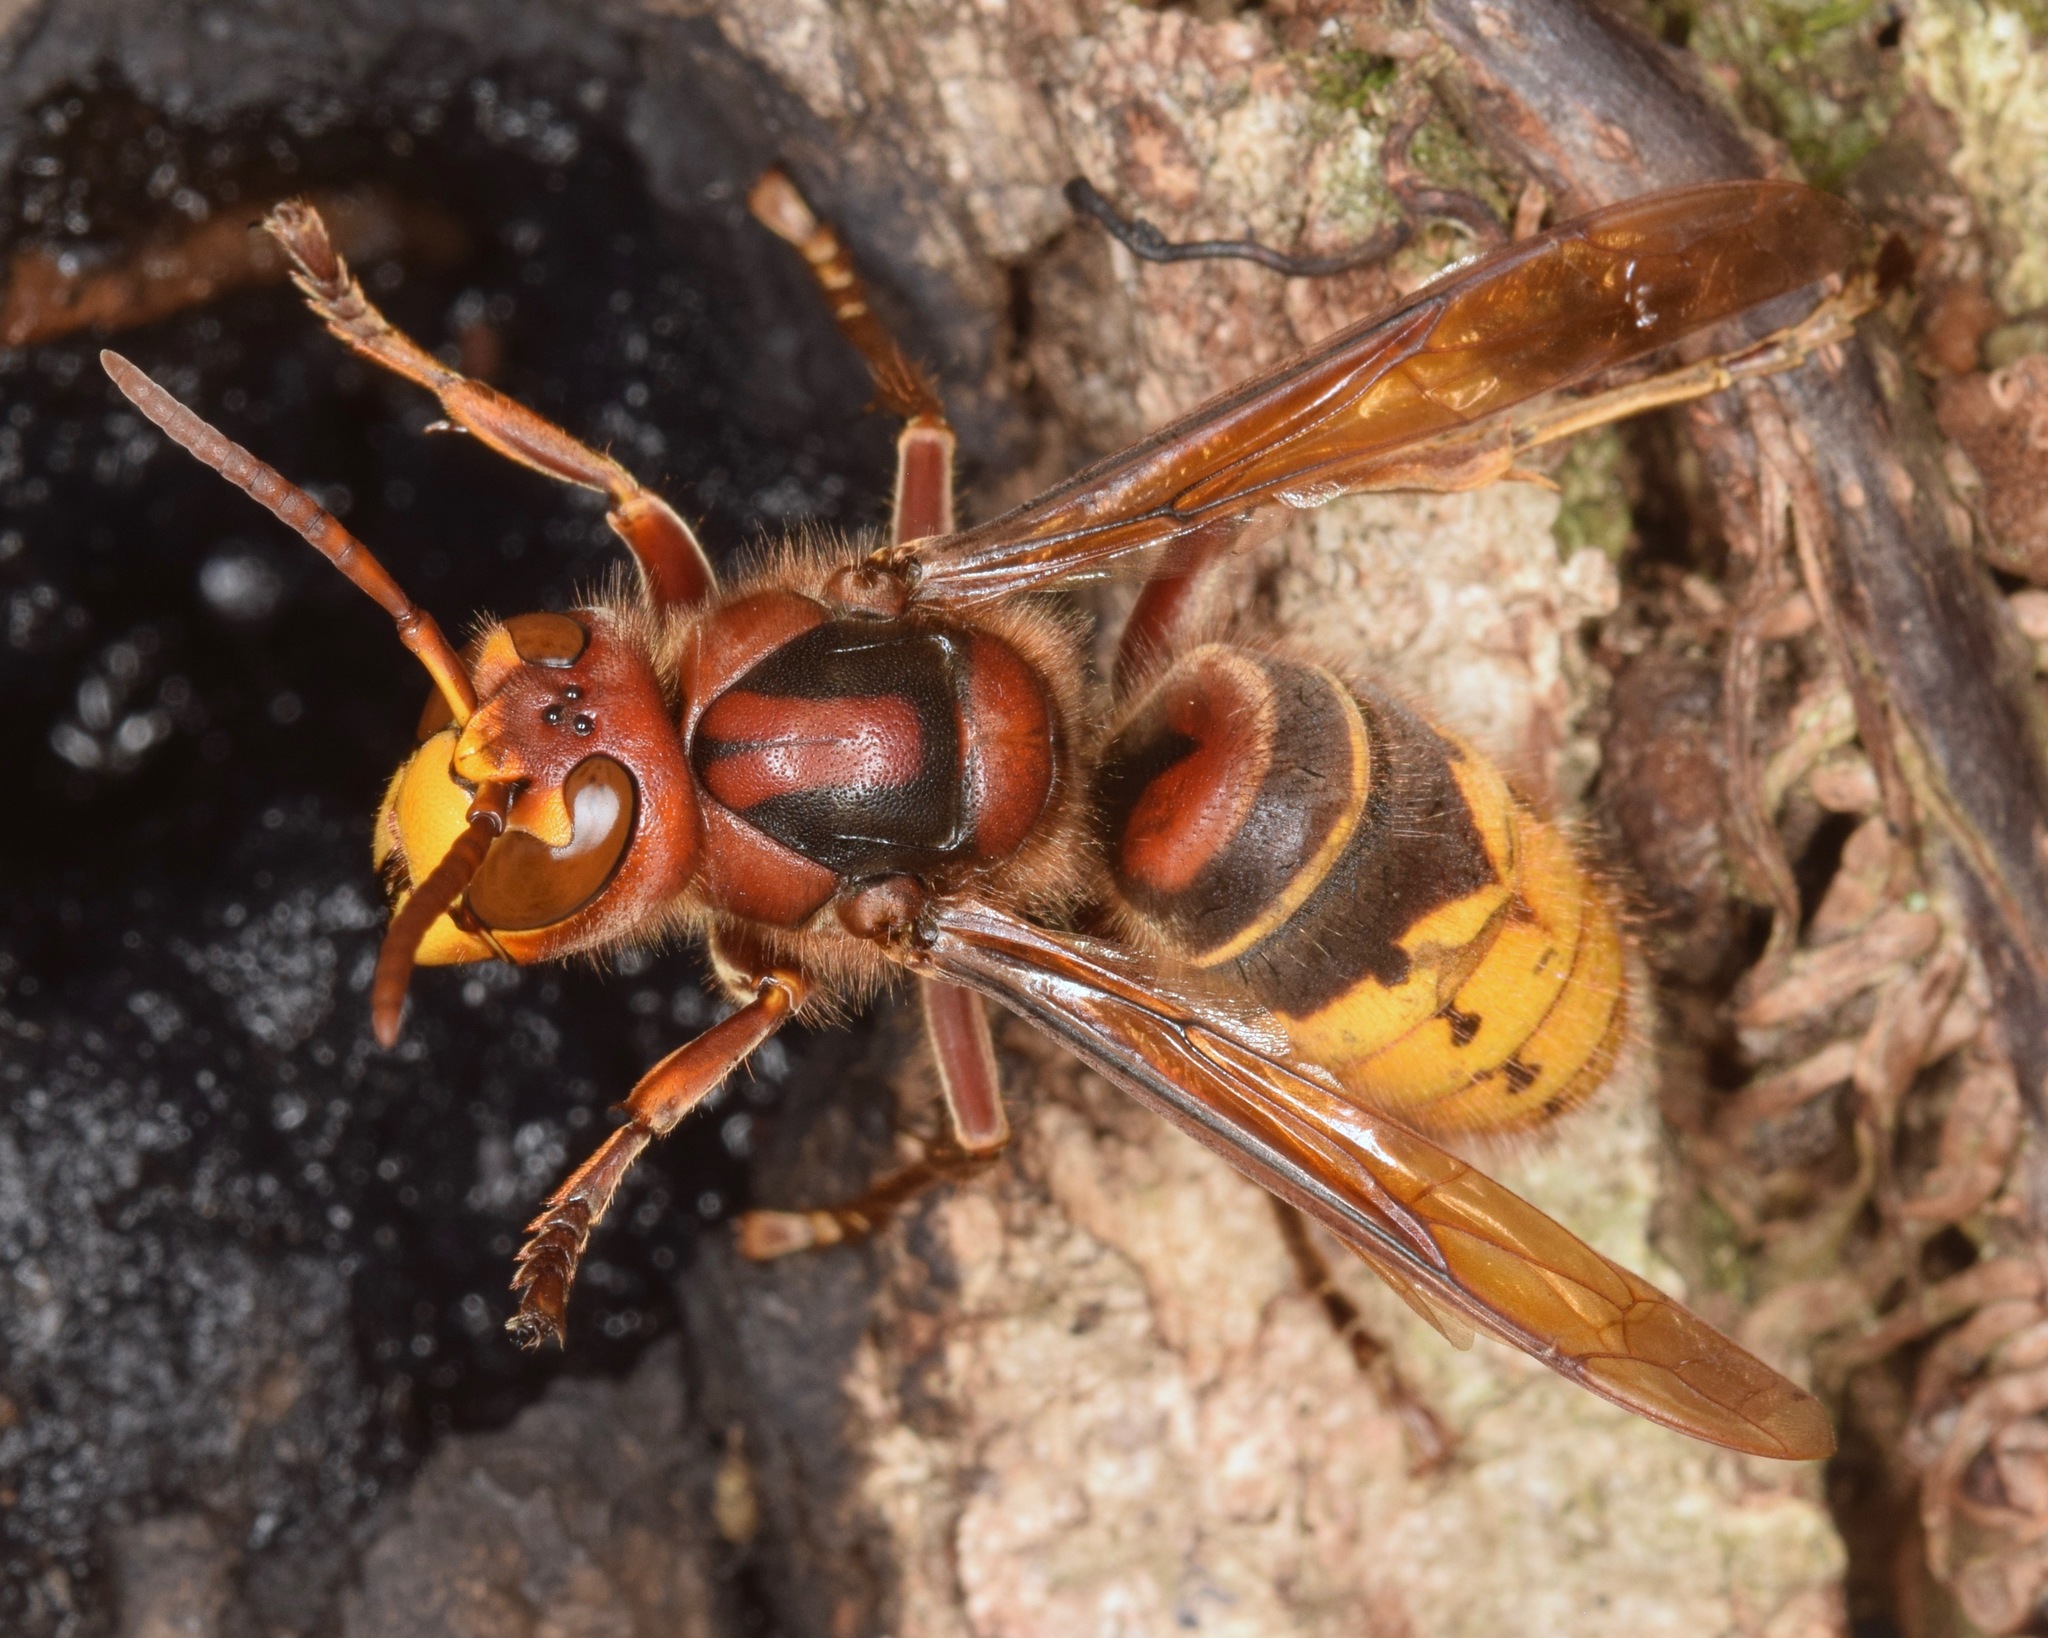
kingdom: Animalia
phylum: Arthropoda
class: Insecta
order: Hymenoptera
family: Vespidae
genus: Vespa
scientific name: Vespa crabro
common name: Hornet
